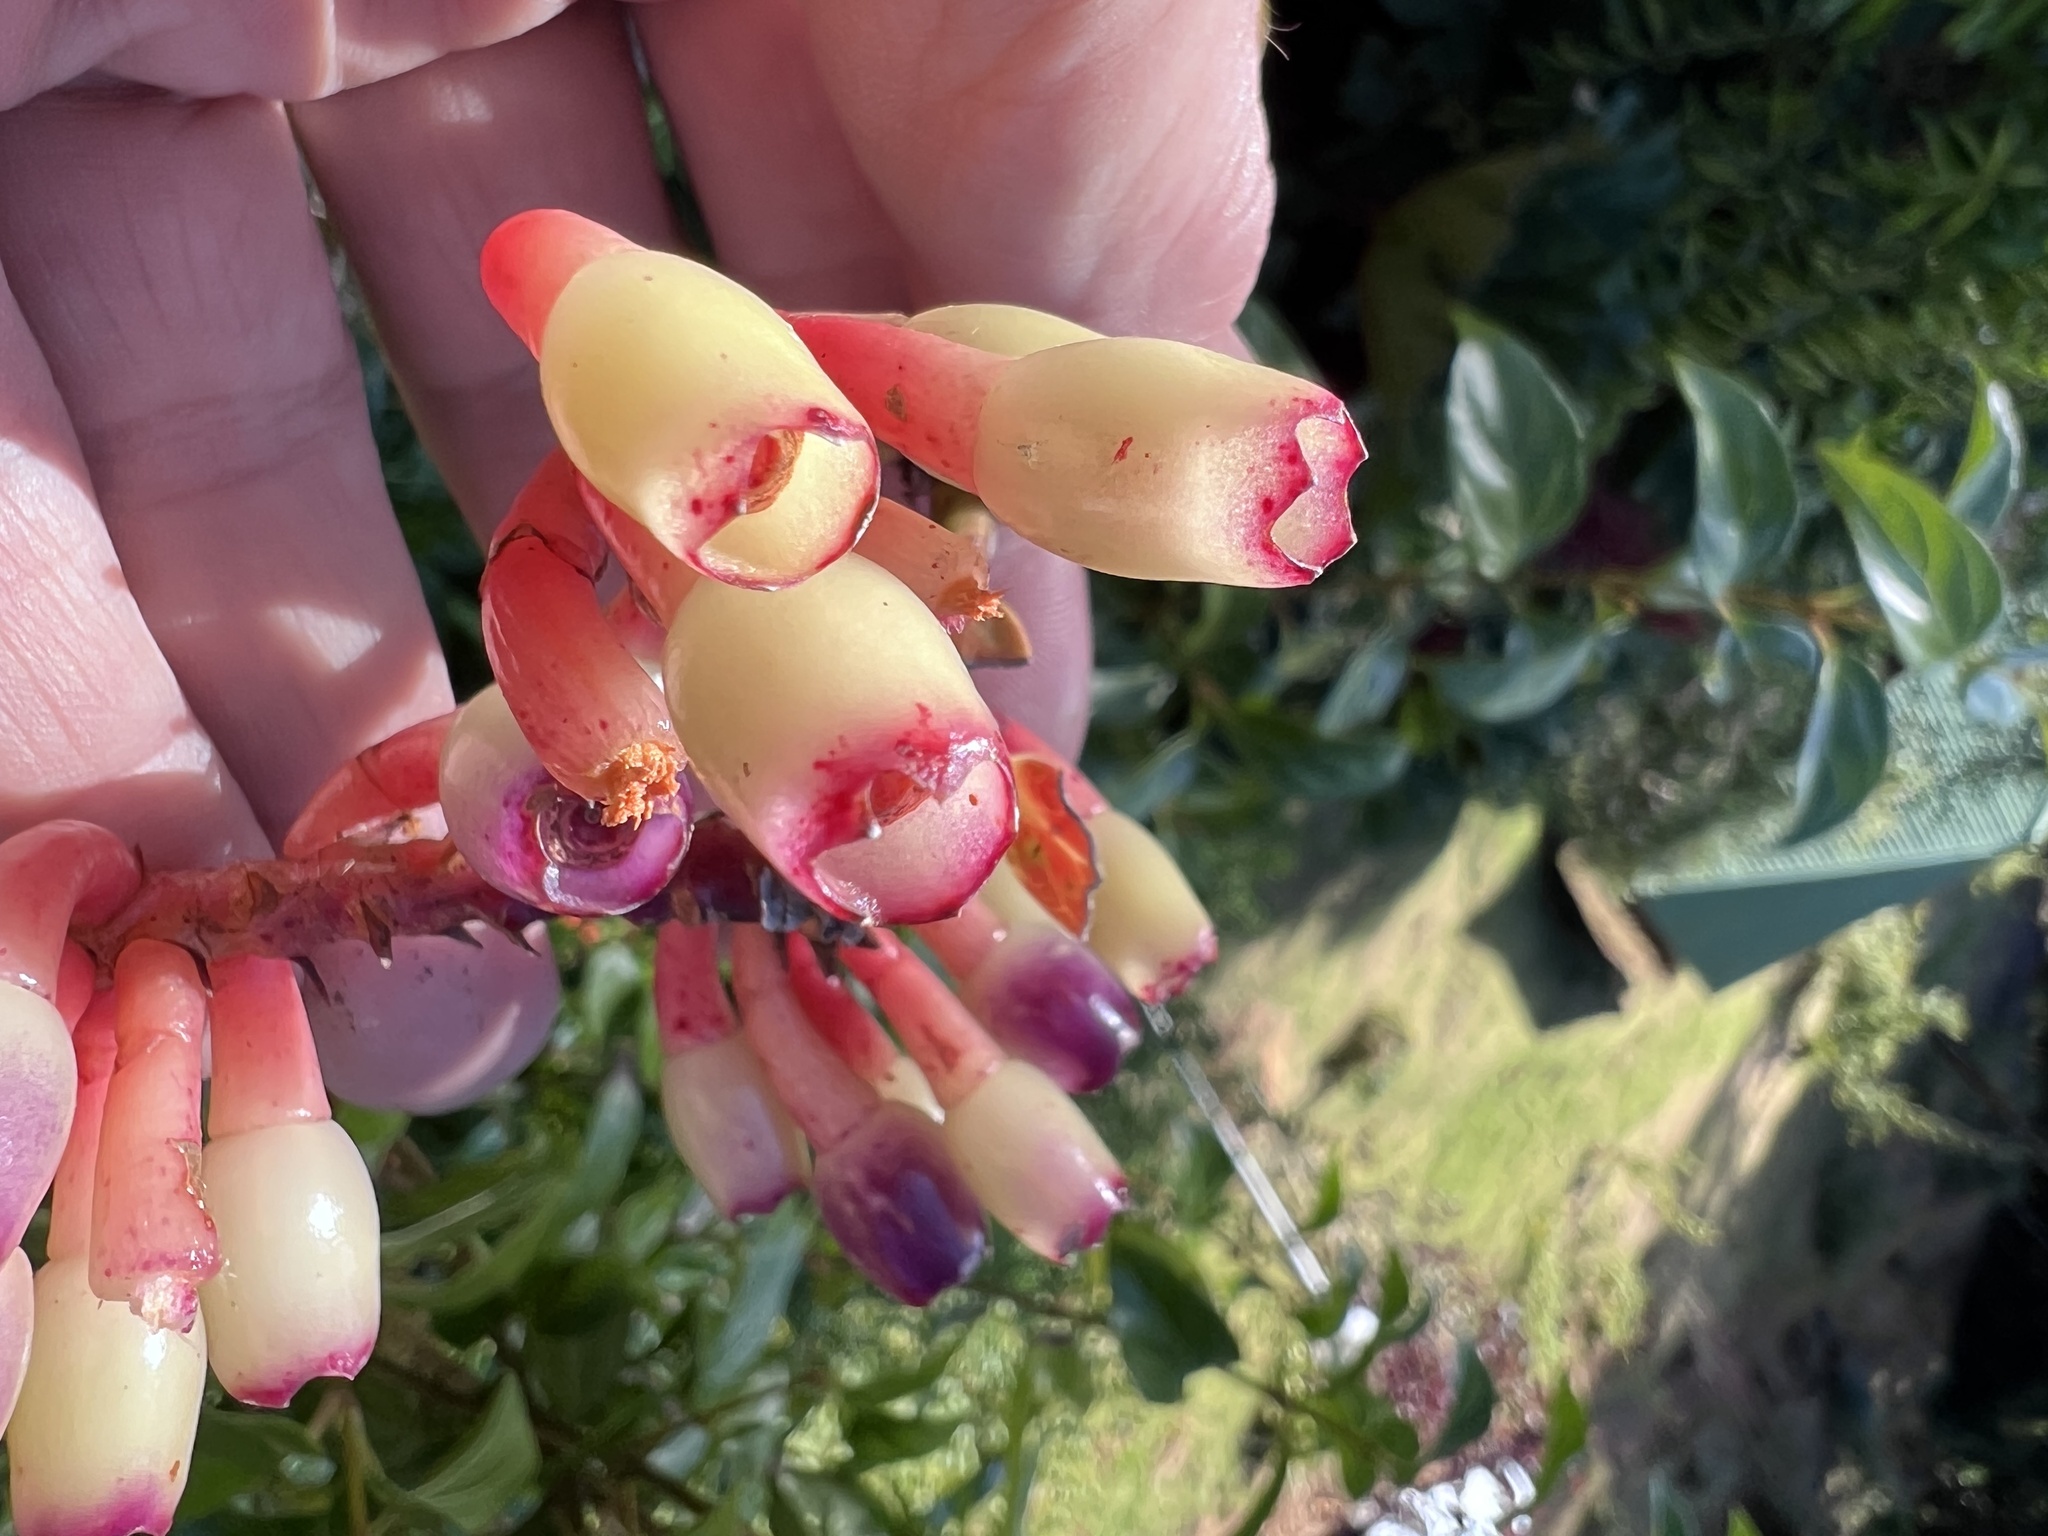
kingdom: Plantae
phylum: Tracheophyta
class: Magnoliopsida
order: Ericales
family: Ericaceae
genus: Macleania
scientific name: Macleania rupestris
